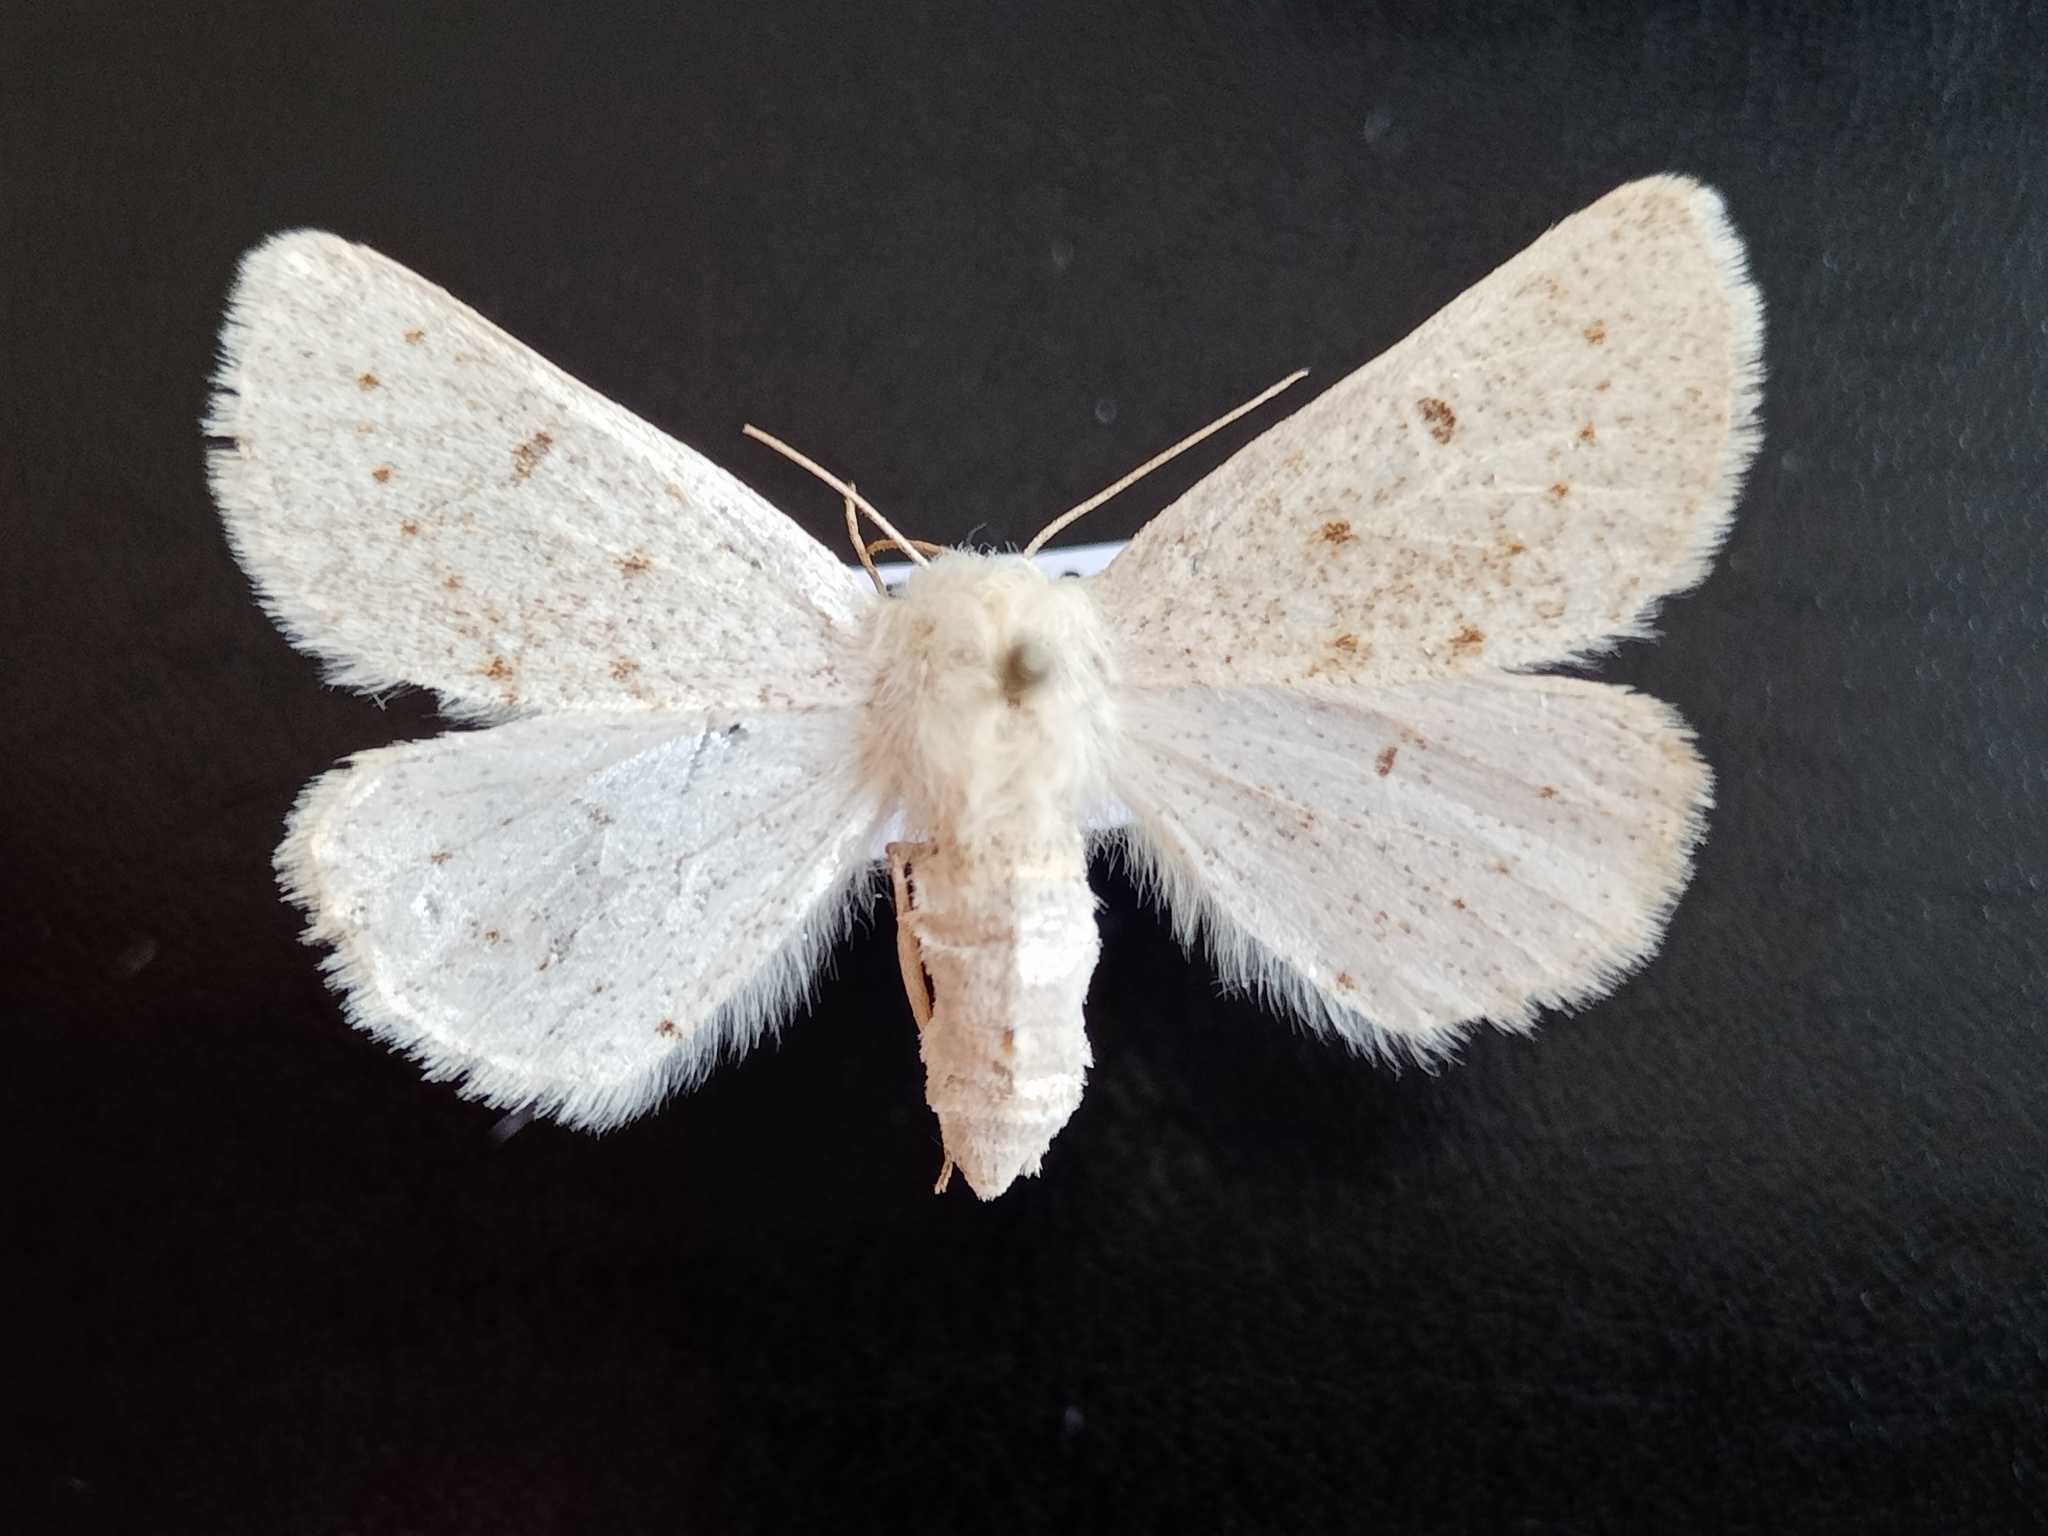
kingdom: Animalia
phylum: Arthropoda
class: Insecta
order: Lepidoptera
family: Geometridae
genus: Dyscia
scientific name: Dyscia lentiscaria
